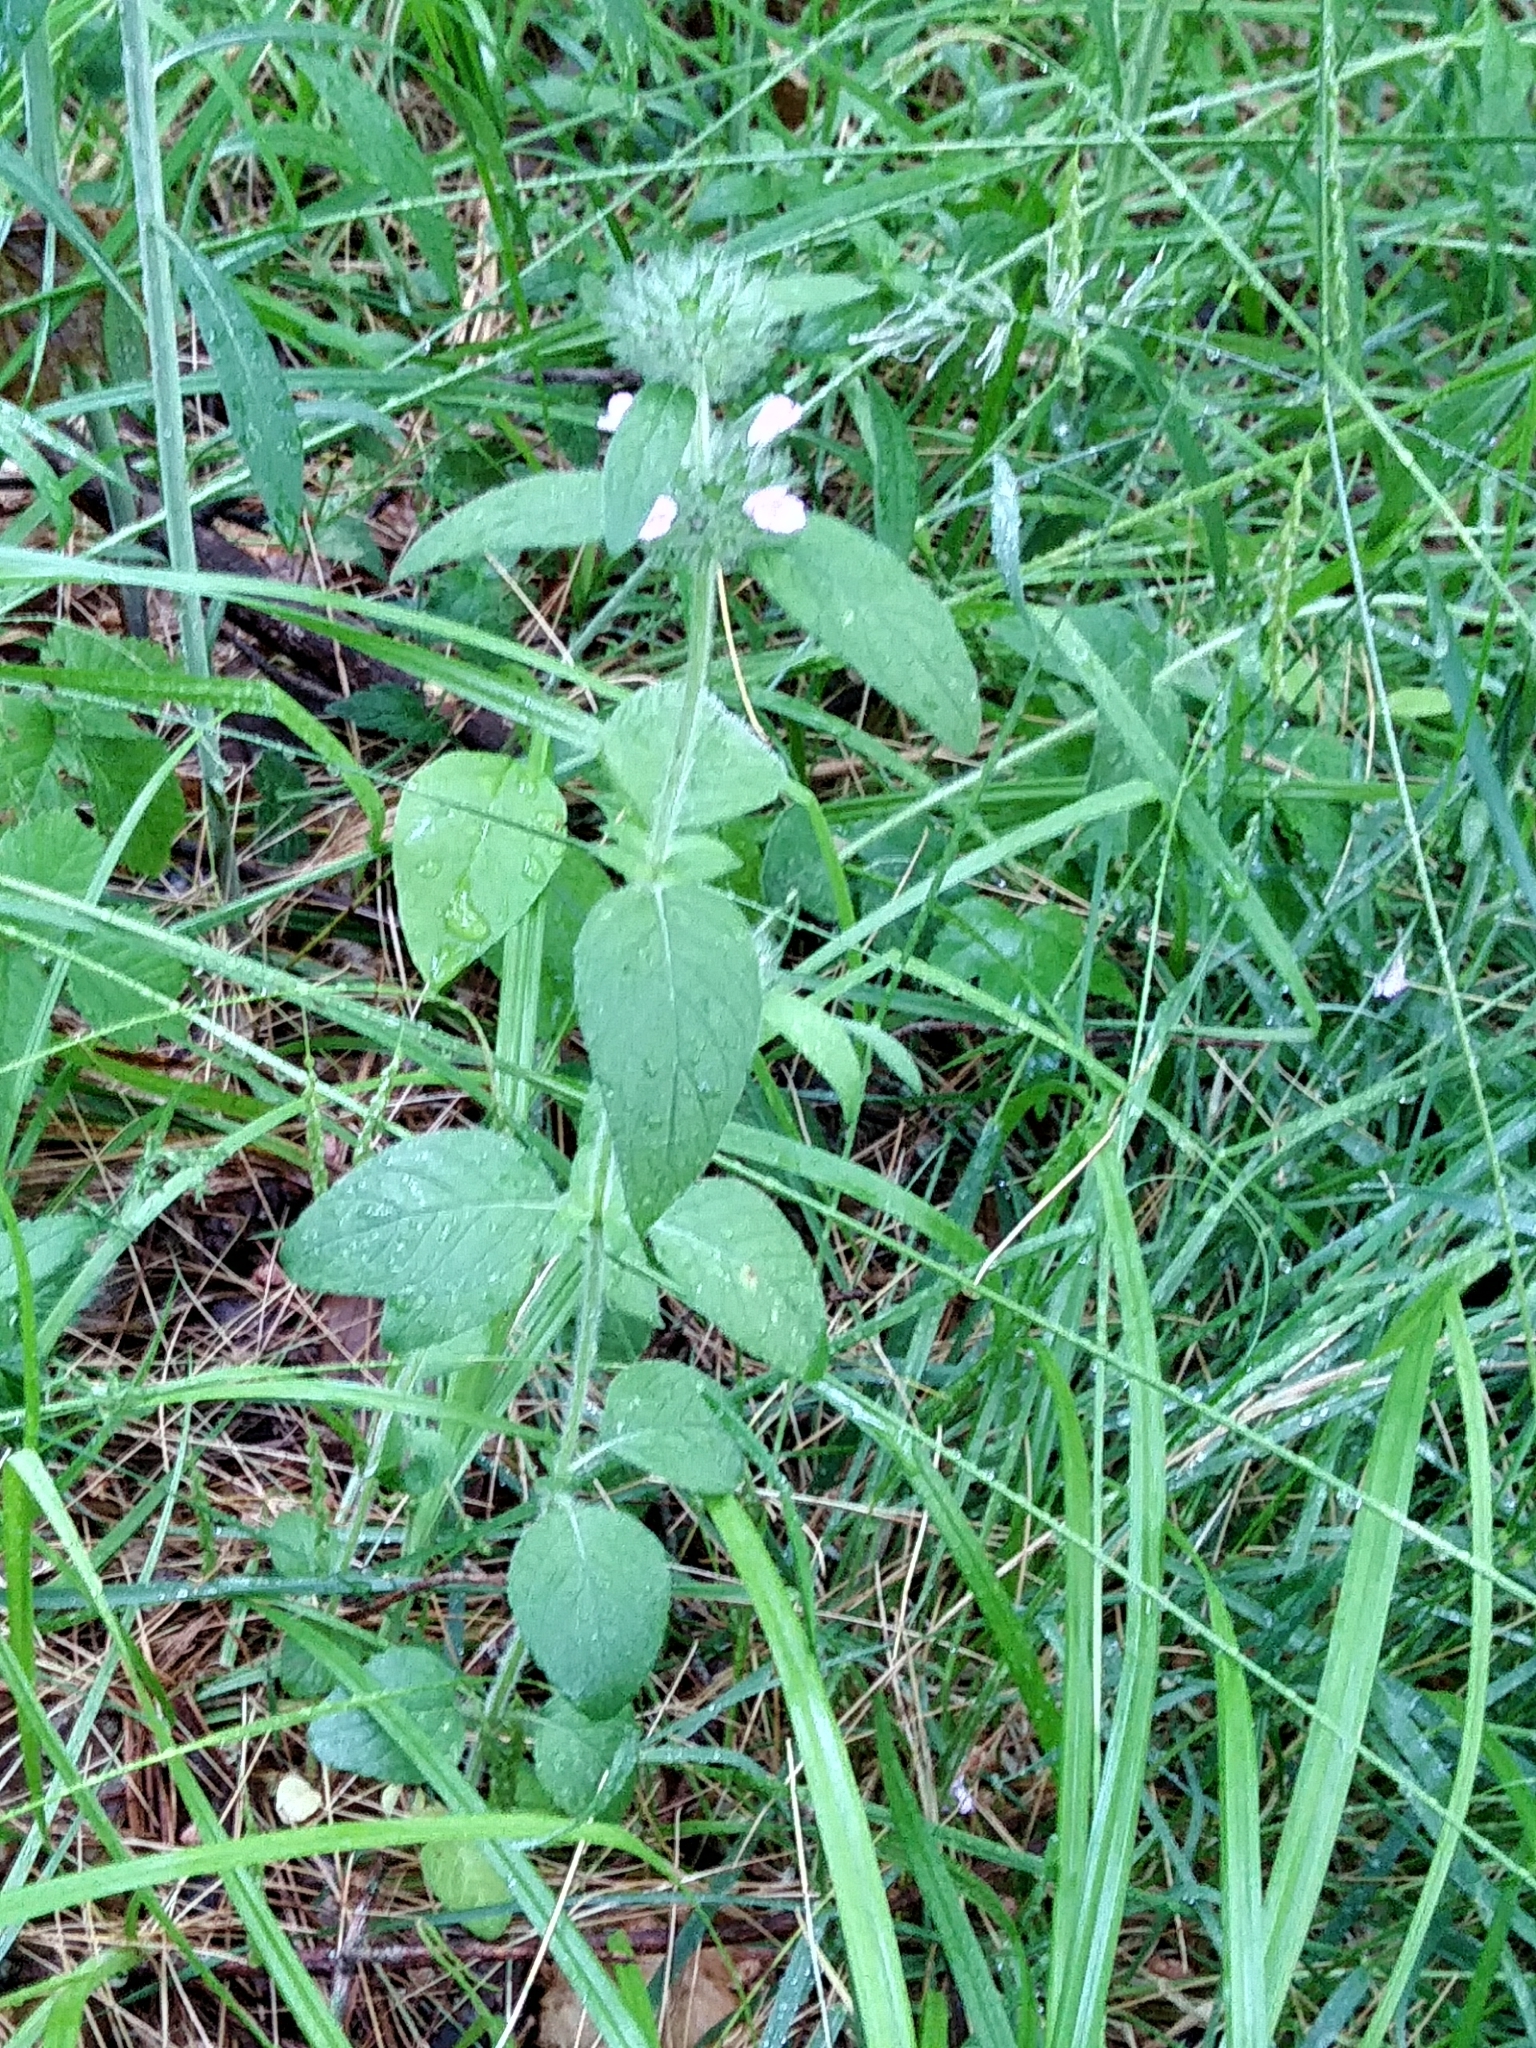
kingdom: Plantae
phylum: Tracheophyta
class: Magnoliopsida
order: Lamiales
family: Lamiaceae
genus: Clinopodium
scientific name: Clinopodium vulgare
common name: Wild basil
